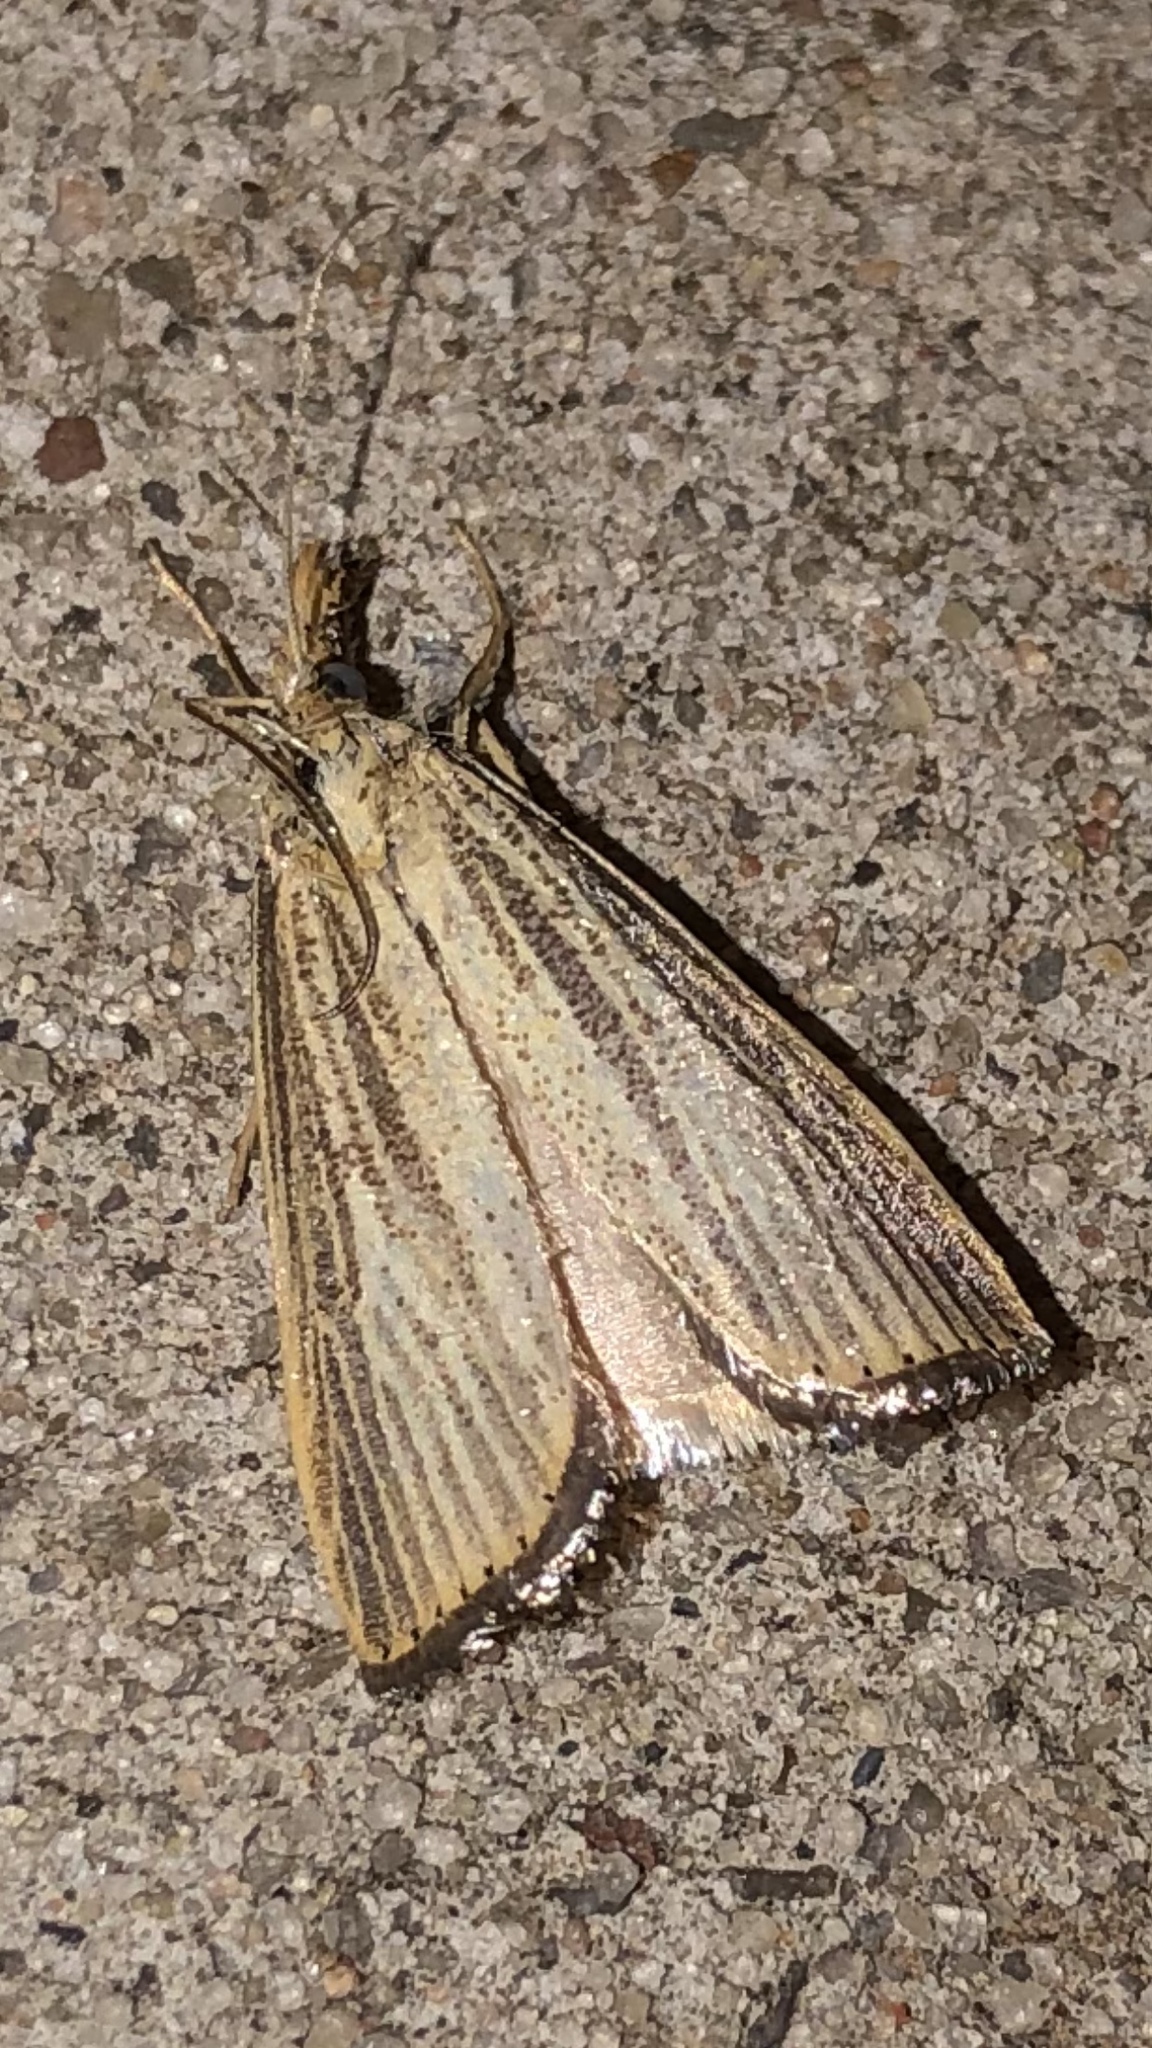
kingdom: Animalia
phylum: Arthropoda
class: Insecta
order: Lepidoptera
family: Crambidae
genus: Agriphila
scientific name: Agriphila vulgivagellus
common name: Vagabond crambus moth
